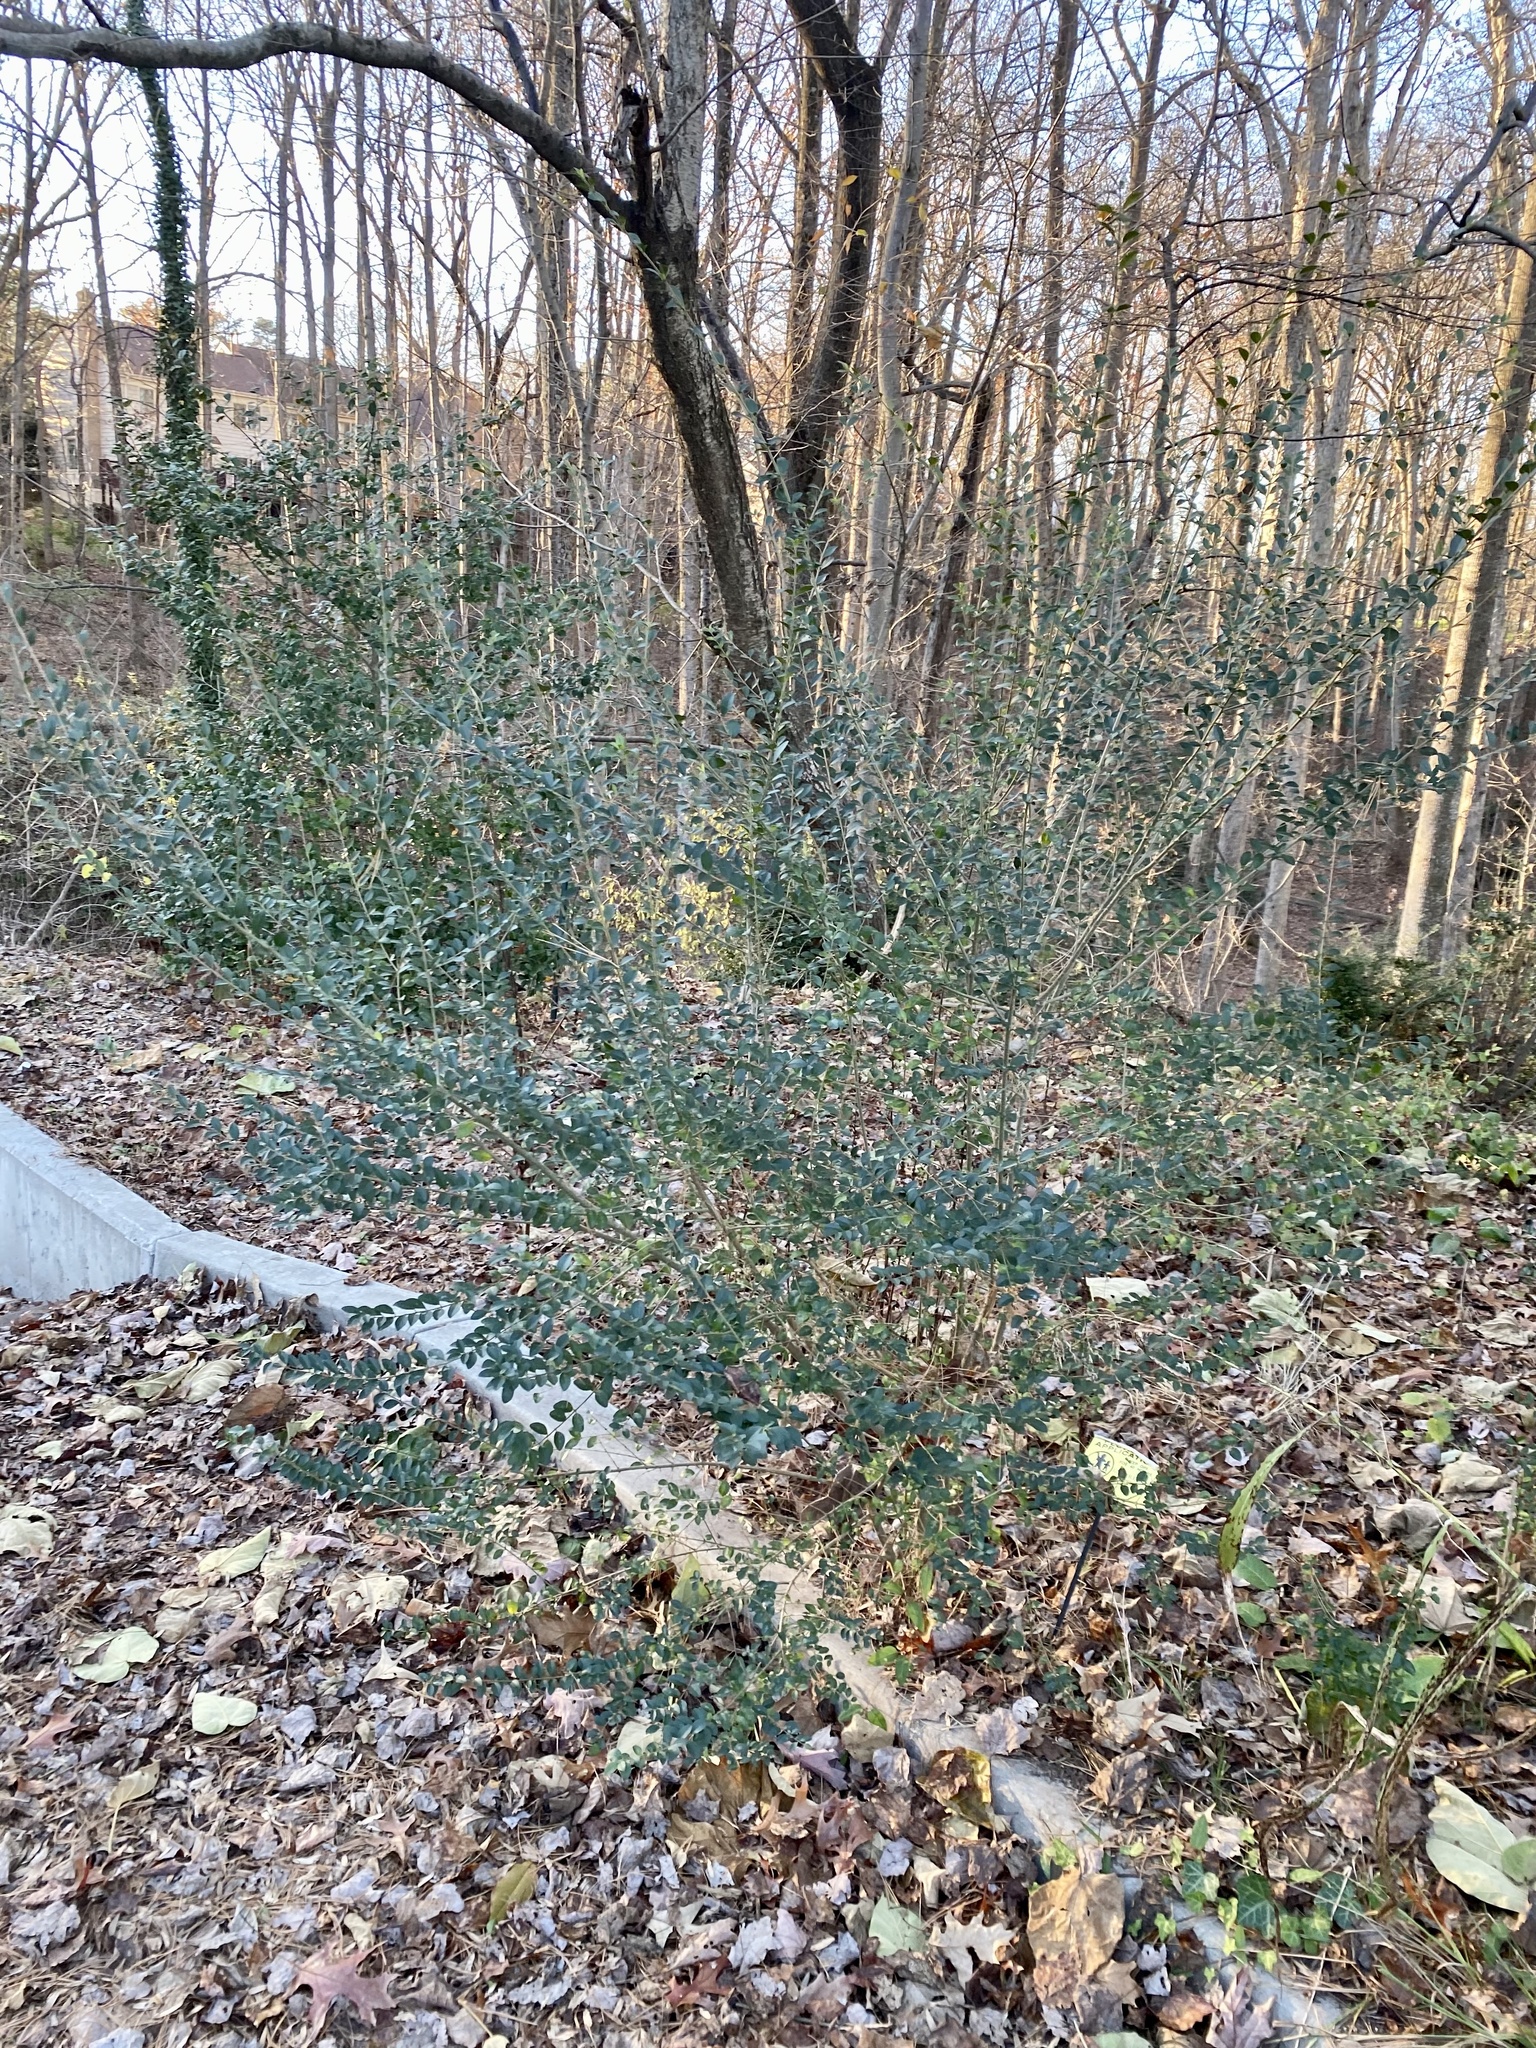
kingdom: Plantae
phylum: Tracheophyta
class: Magnoliopsida
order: Lamiales
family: Oleaceae
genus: Ligustrum
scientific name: Ligustrum sinense
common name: Chinese privet
